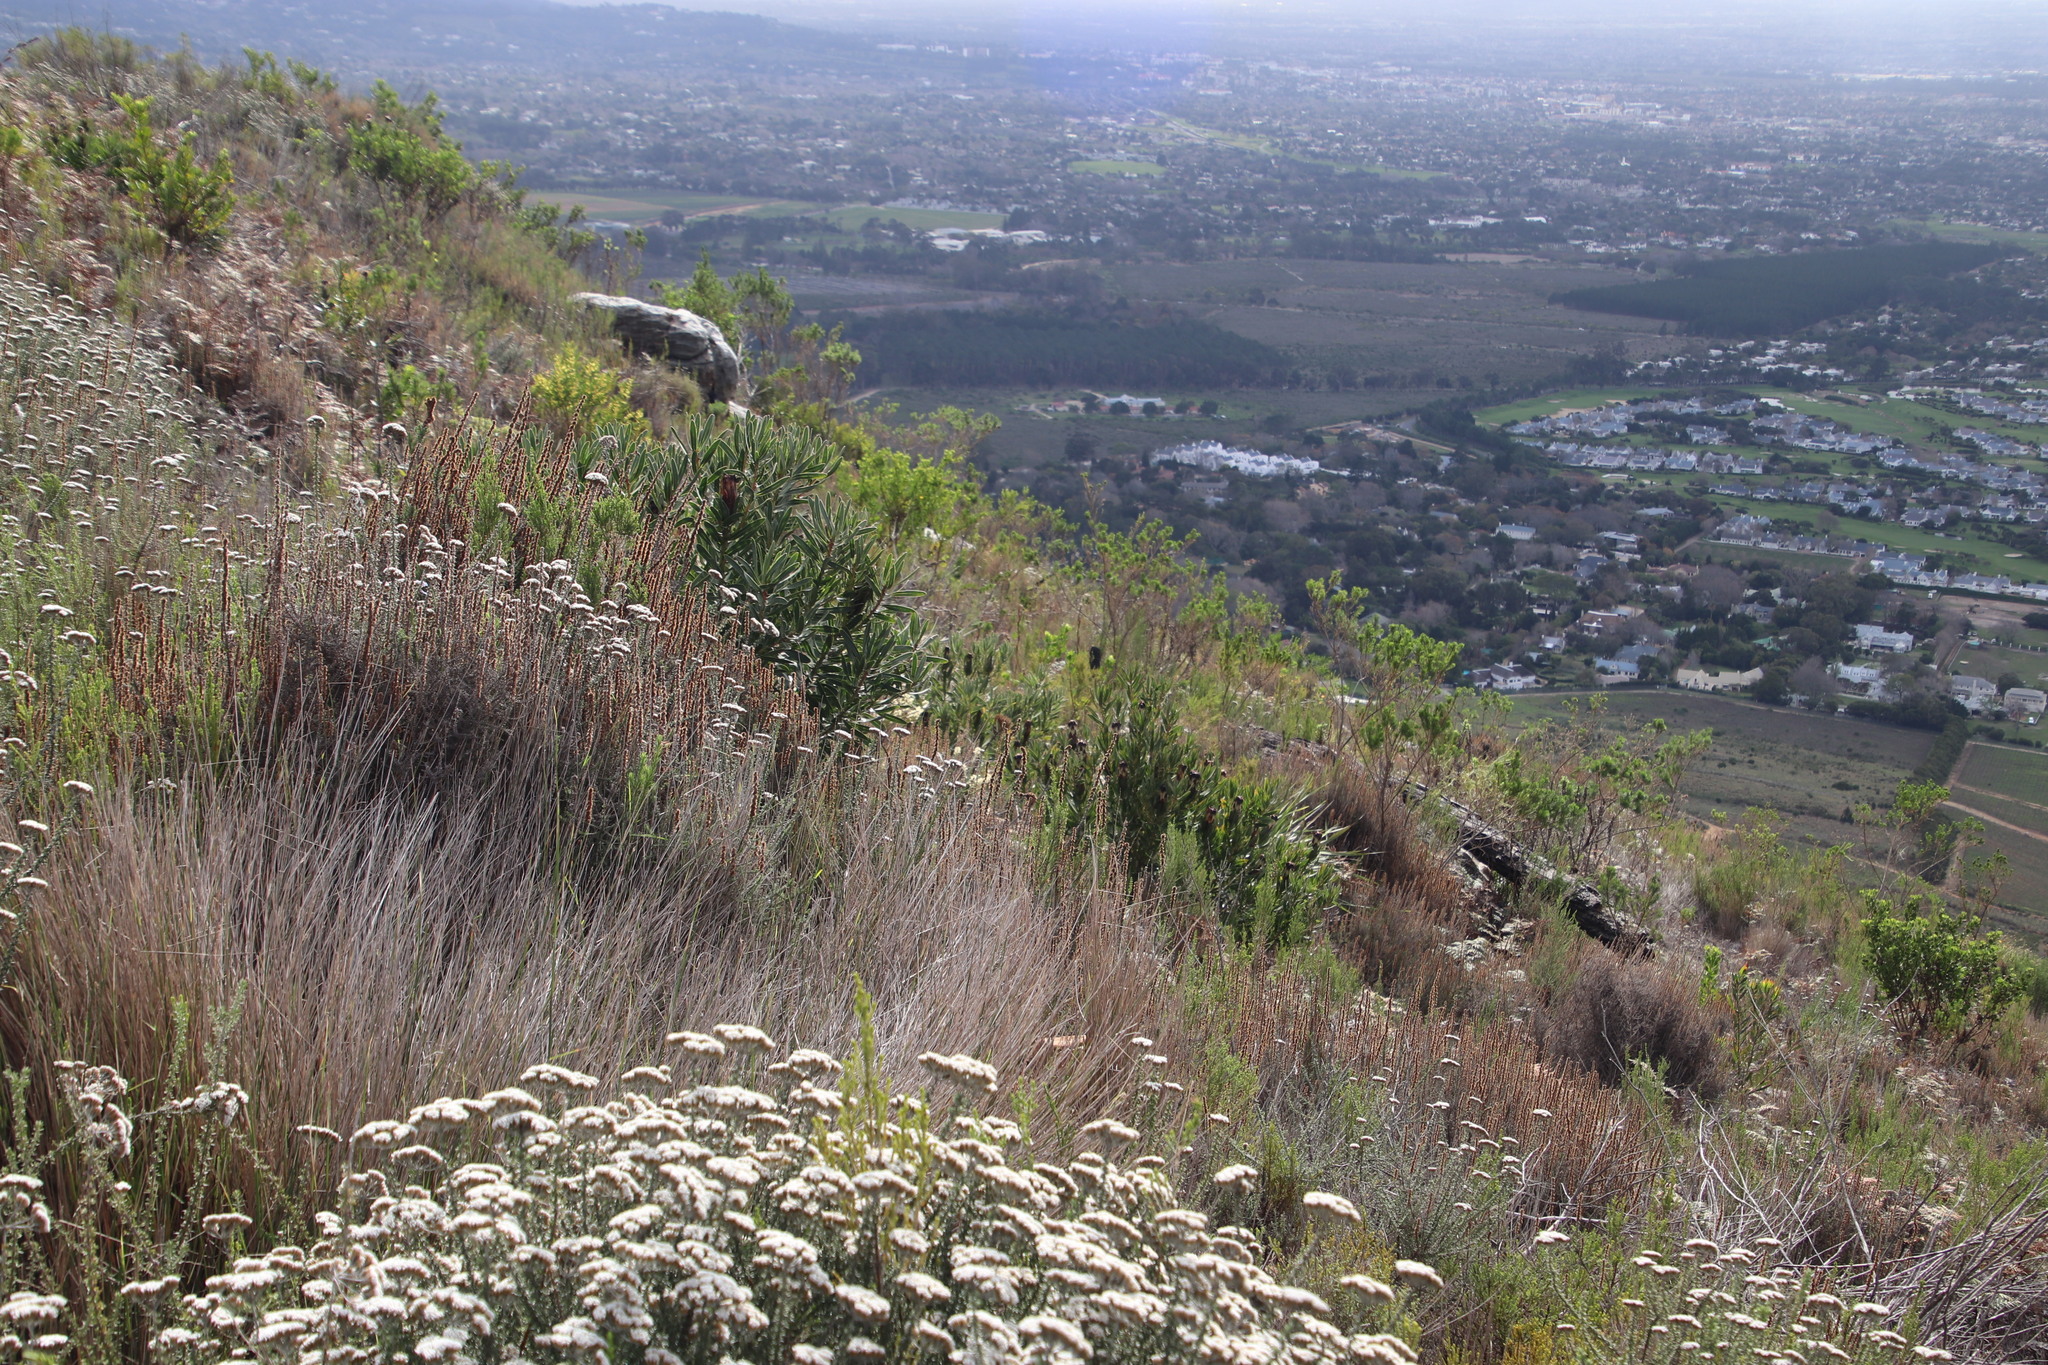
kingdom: Plantae
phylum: Tracheophyta
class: Magnoliopsida
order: Proteales
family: Proteaceae
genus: Protea
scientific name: Protea lepidocarpodendron
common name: Black-bearded protea
